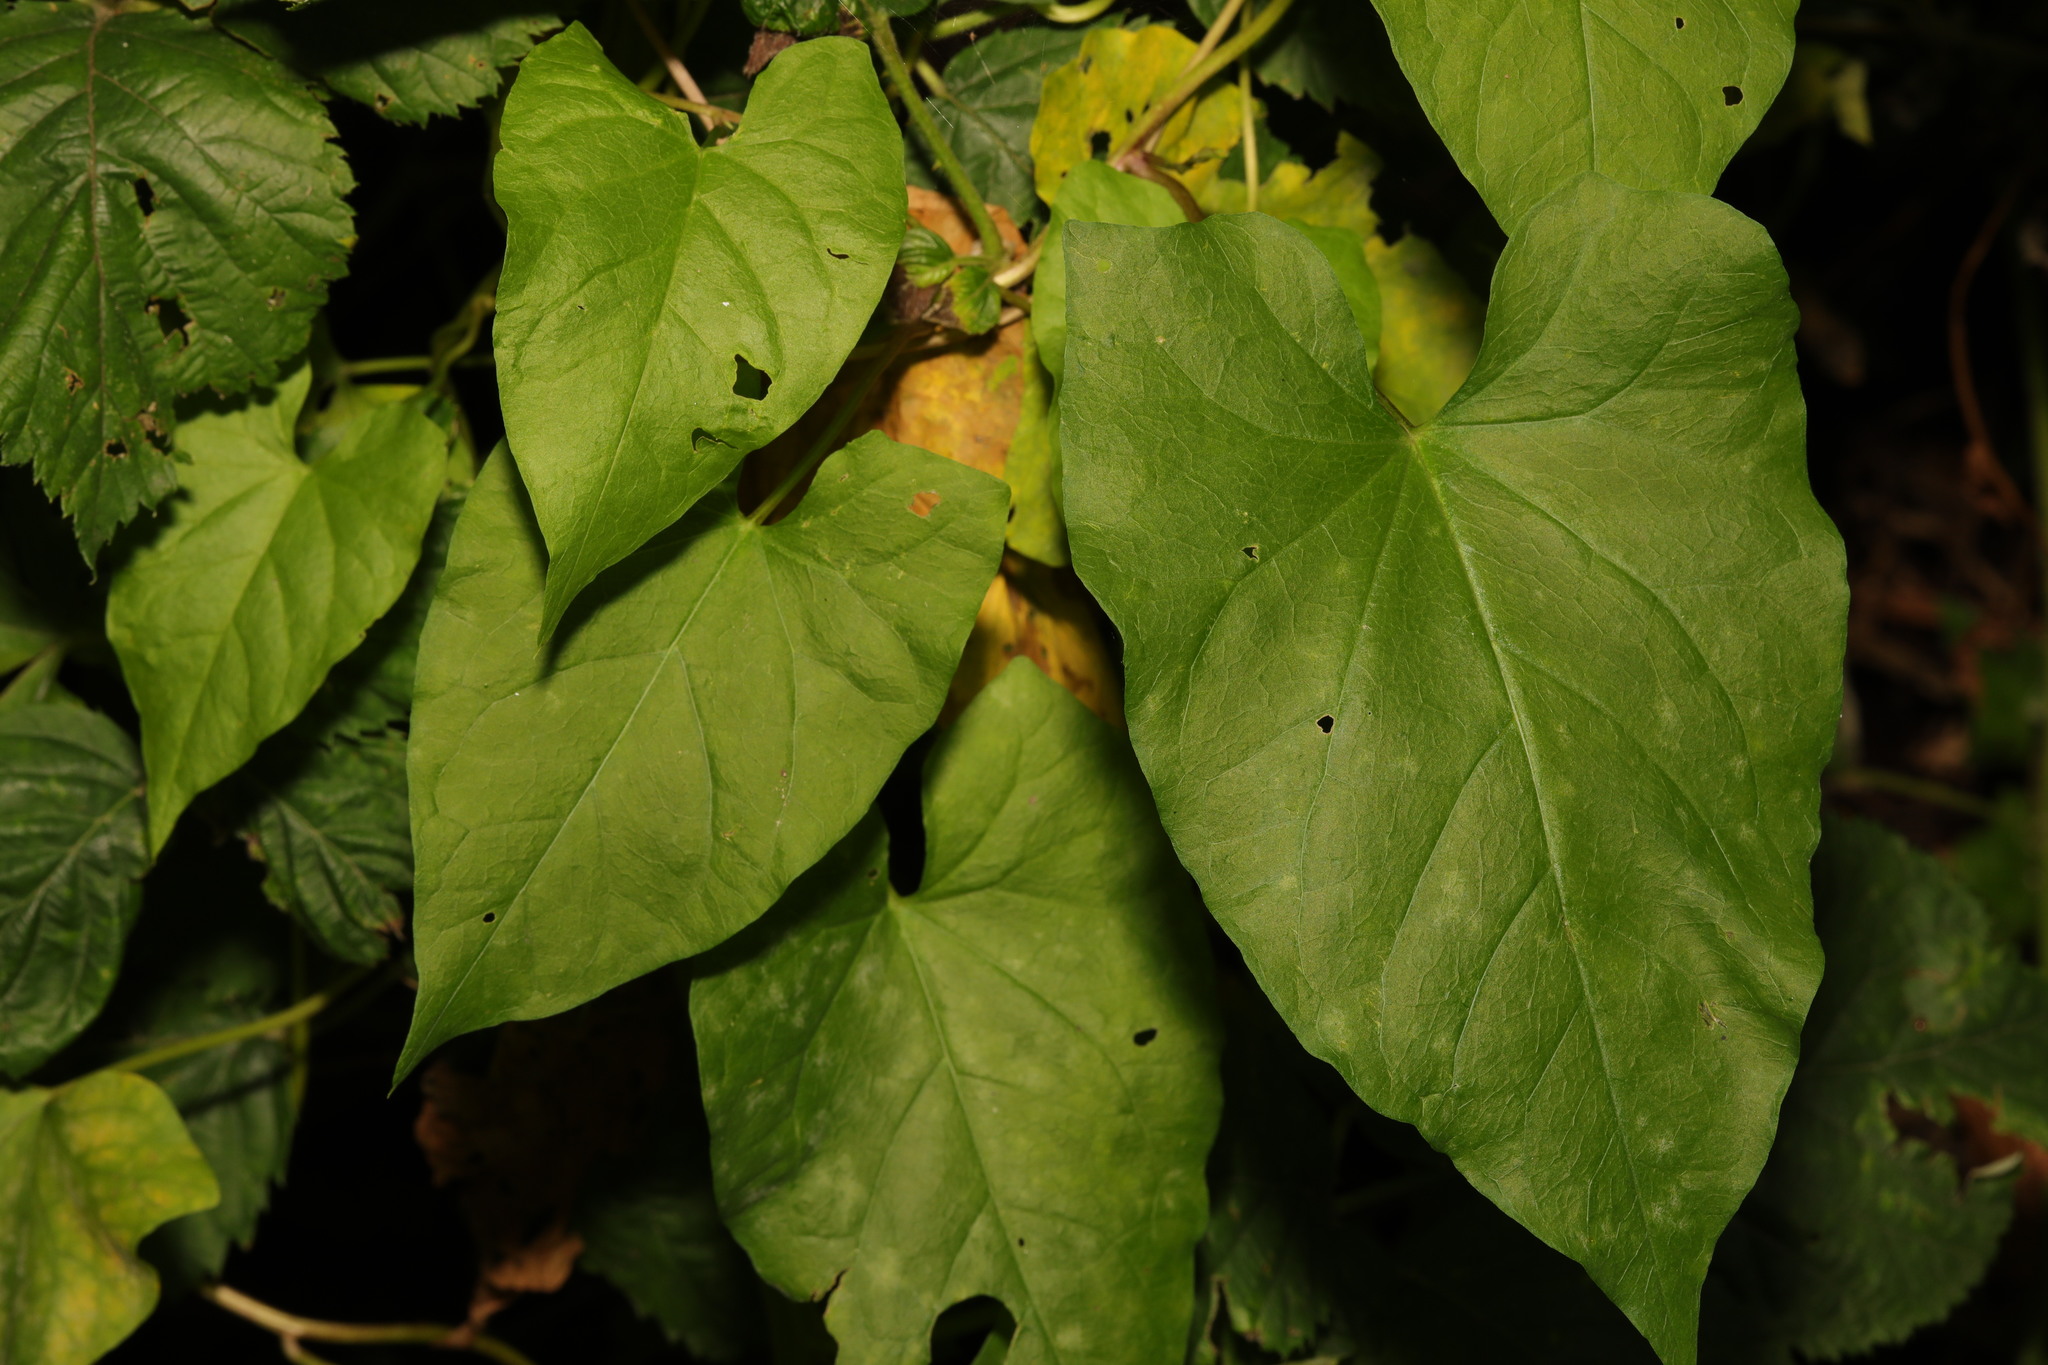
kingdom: Plantae
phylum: Tracheophyta
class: Magnoliopsida
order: Solanales
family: Convolvulaceae
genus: Calystegia
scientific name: Calystegia
